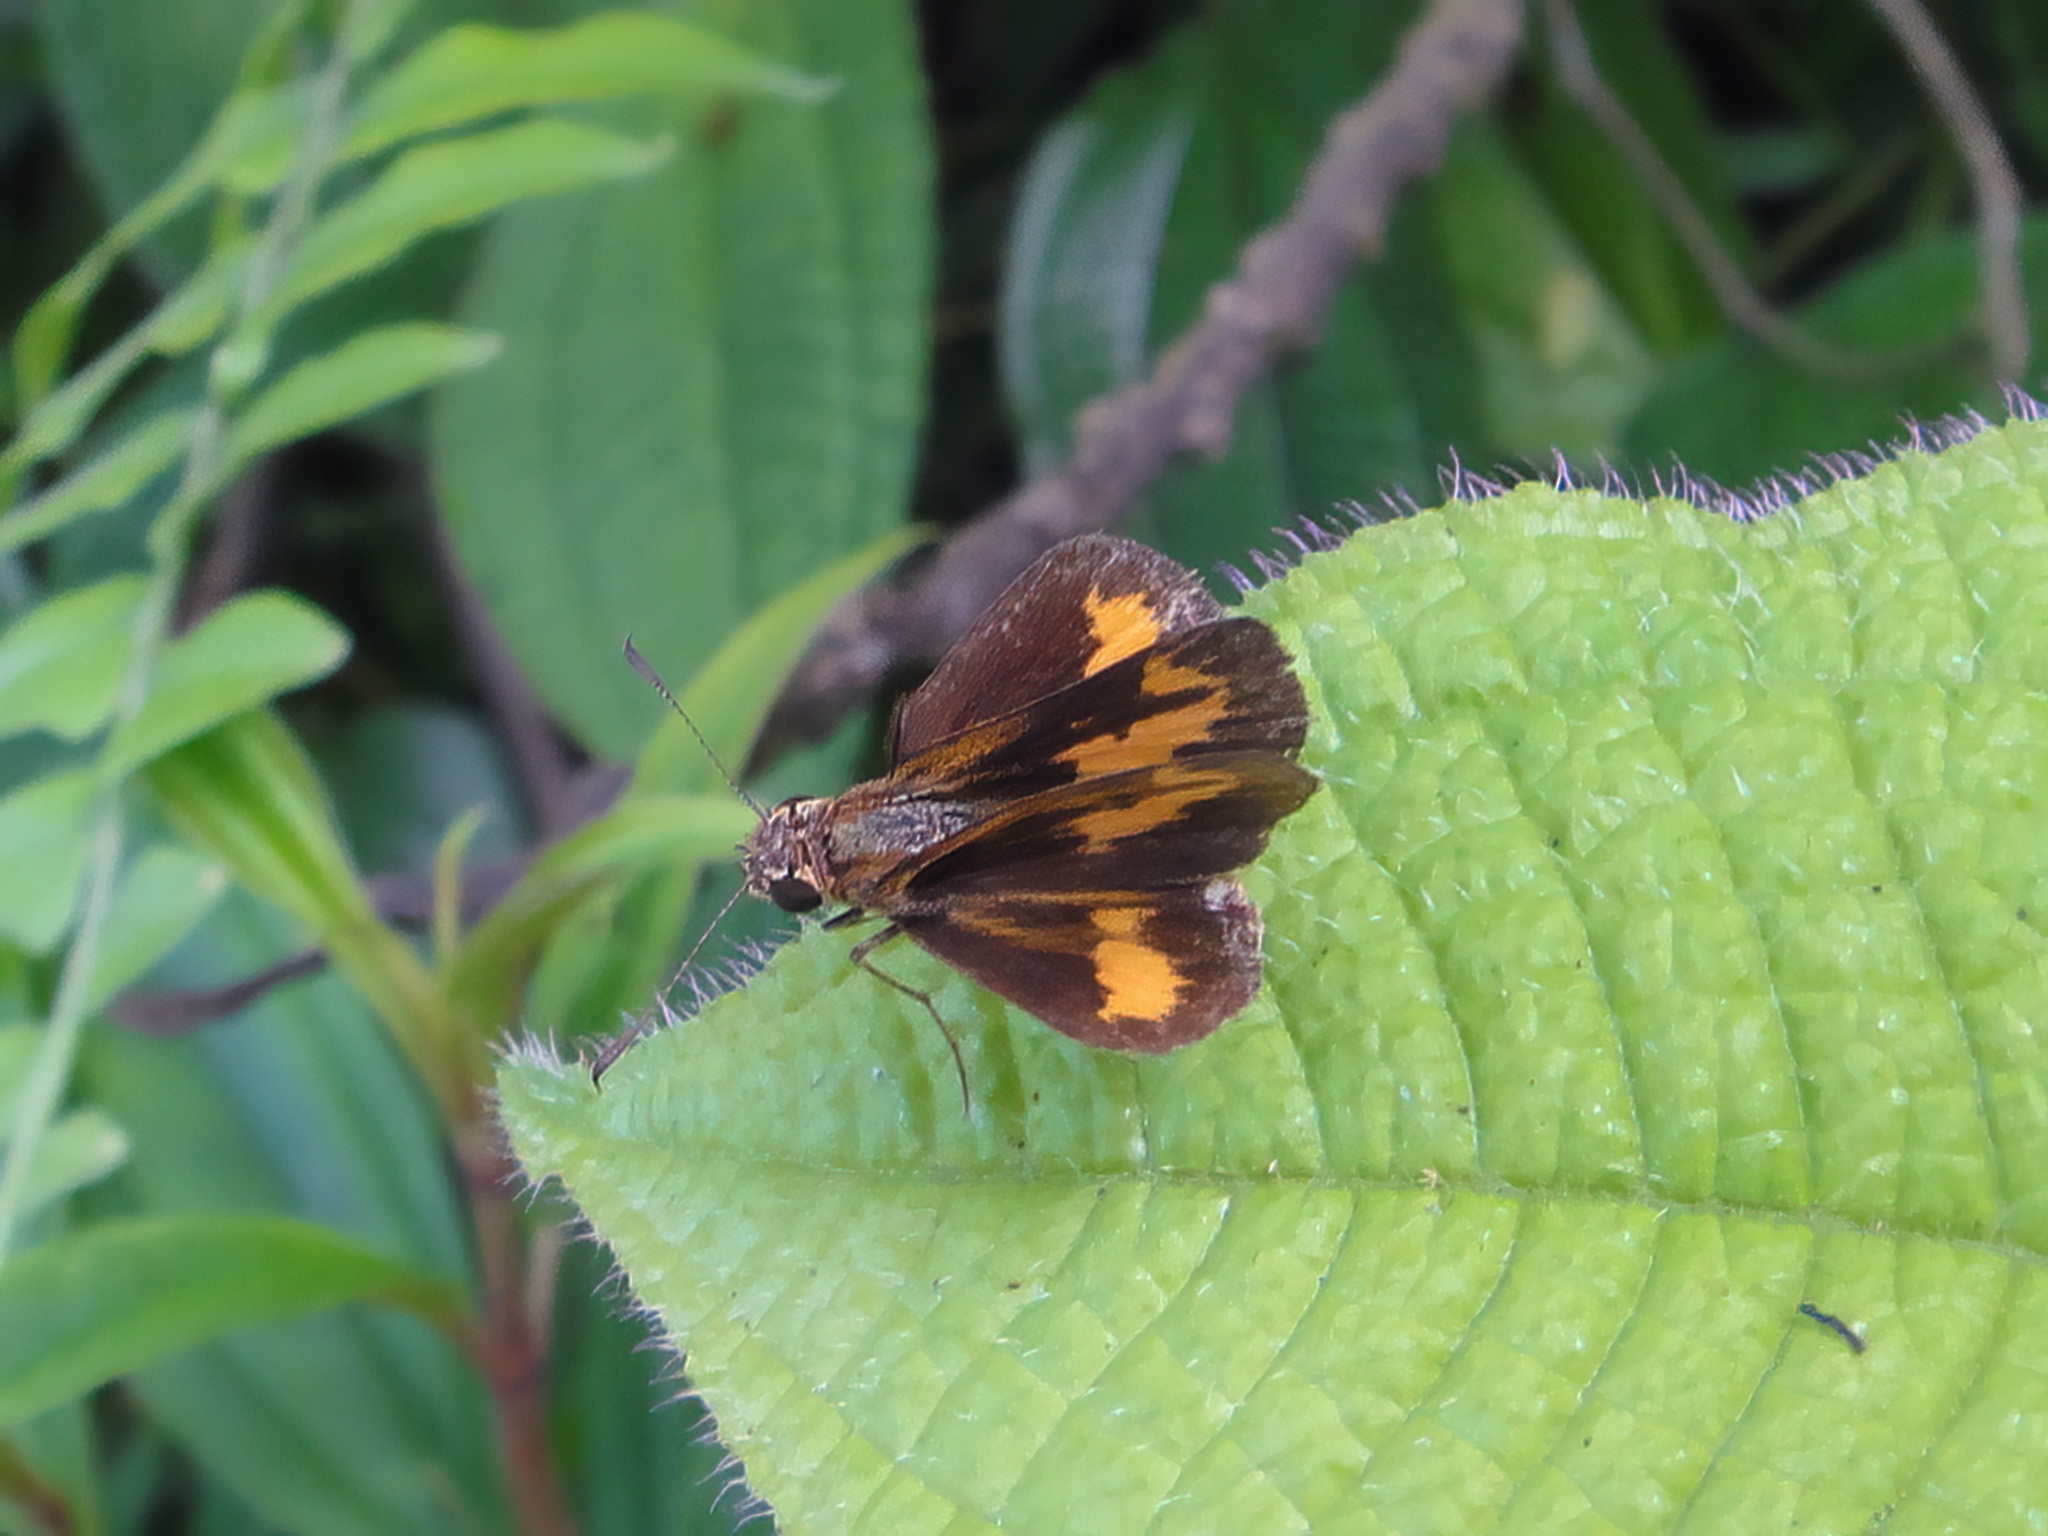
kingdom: Animalia
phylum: Arthropoda
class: Insecta
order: Lepidoptera
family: Hesperiidae
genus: Oriens
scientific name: Oriens gola
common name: Common dartlet
